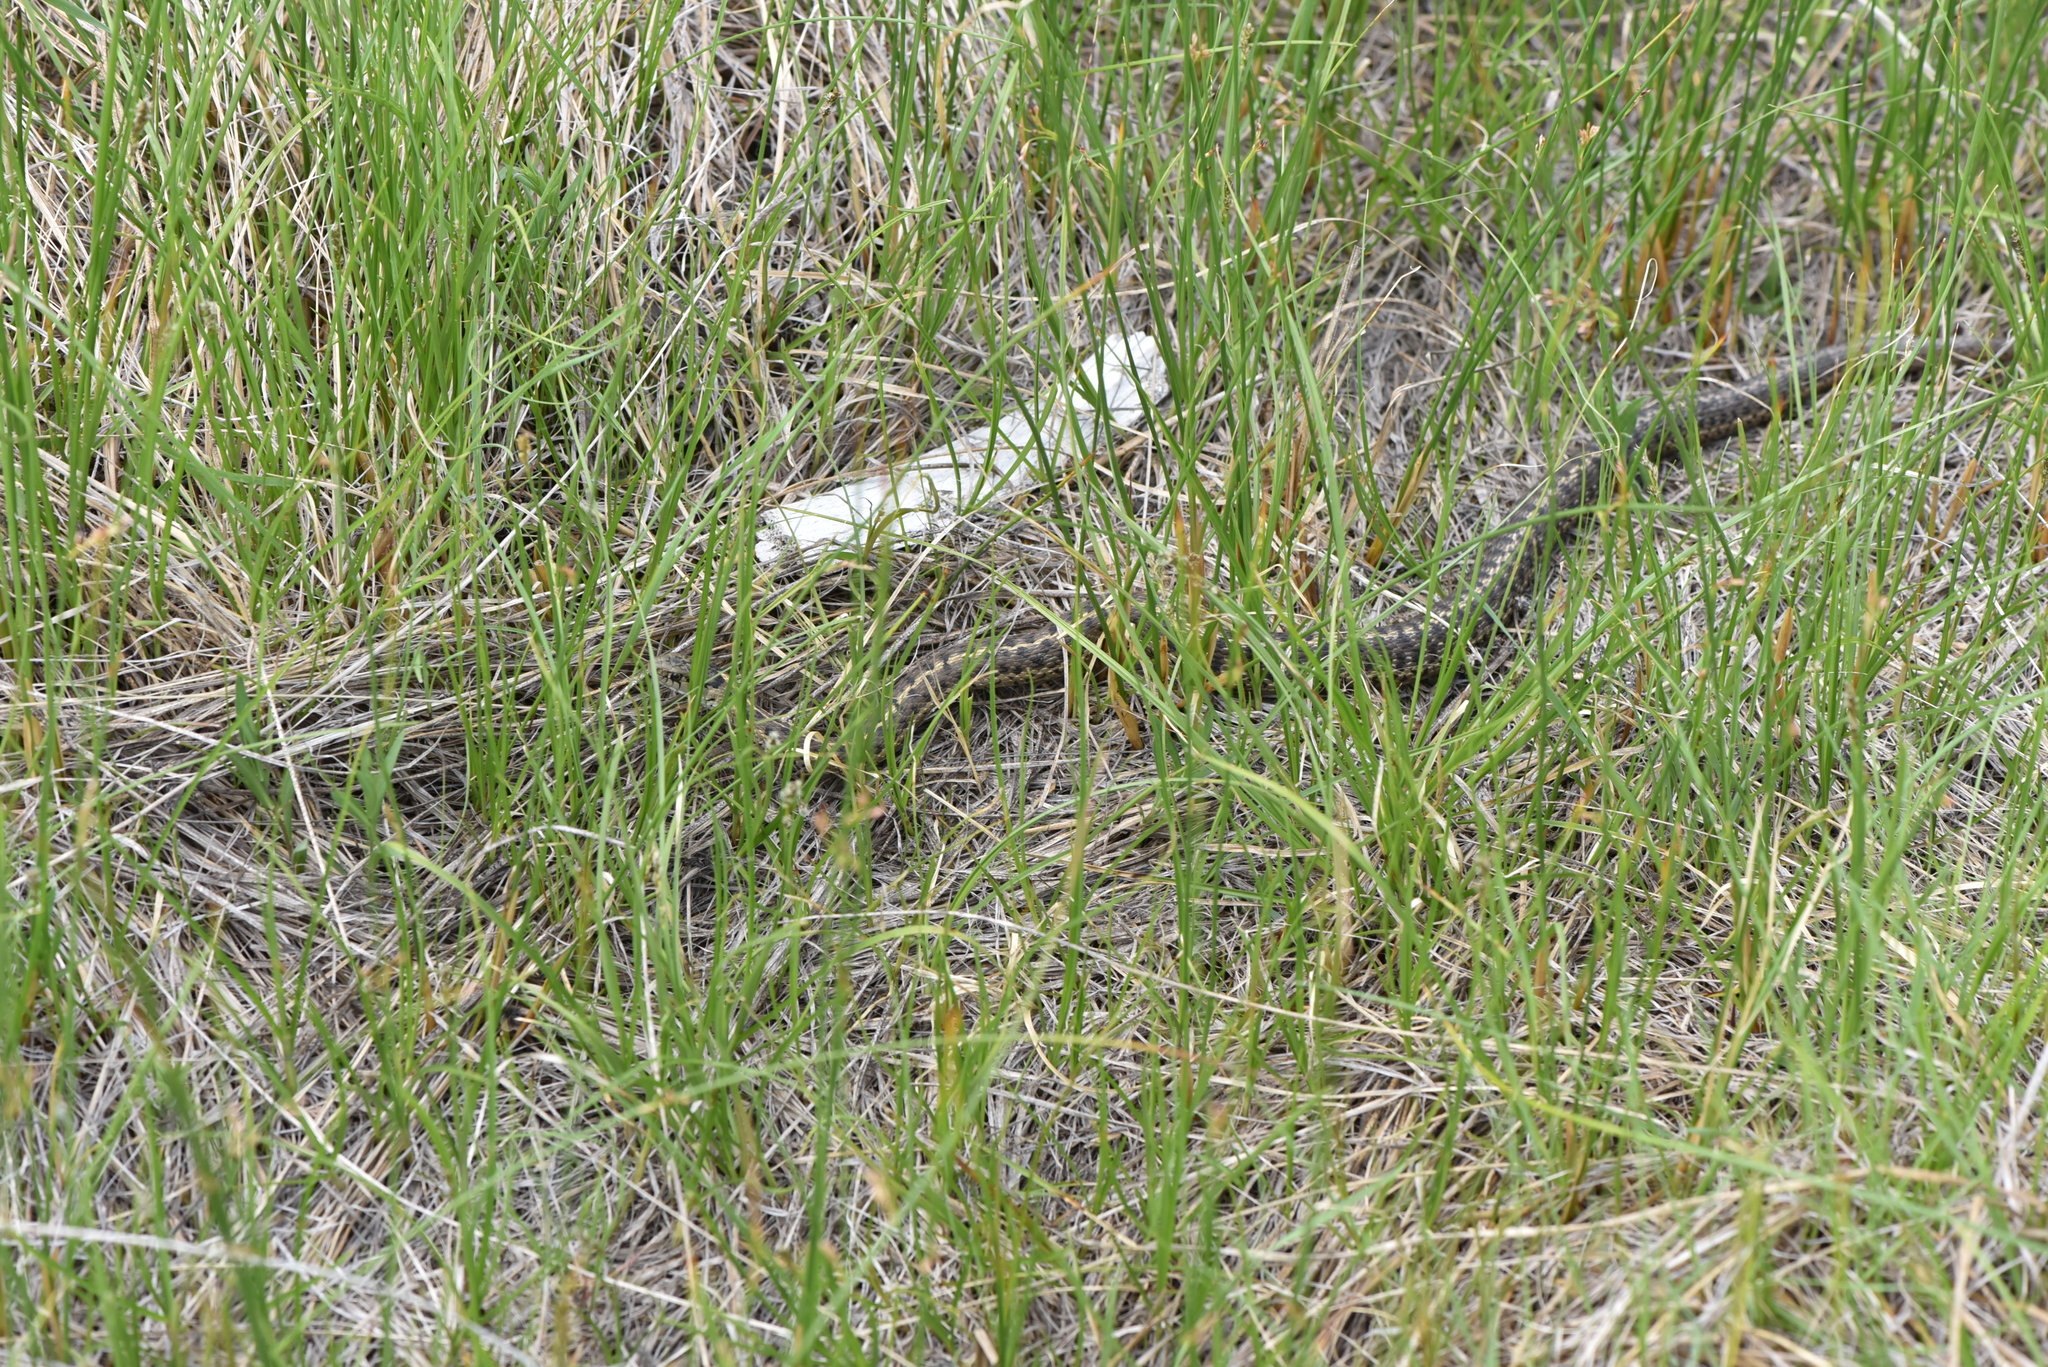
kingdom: Animalia
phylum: Chordata
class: Squamata
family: Colubridae
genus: Thamnophis
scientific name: Thamnophis elegans
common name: Western terrestrial garter snake
